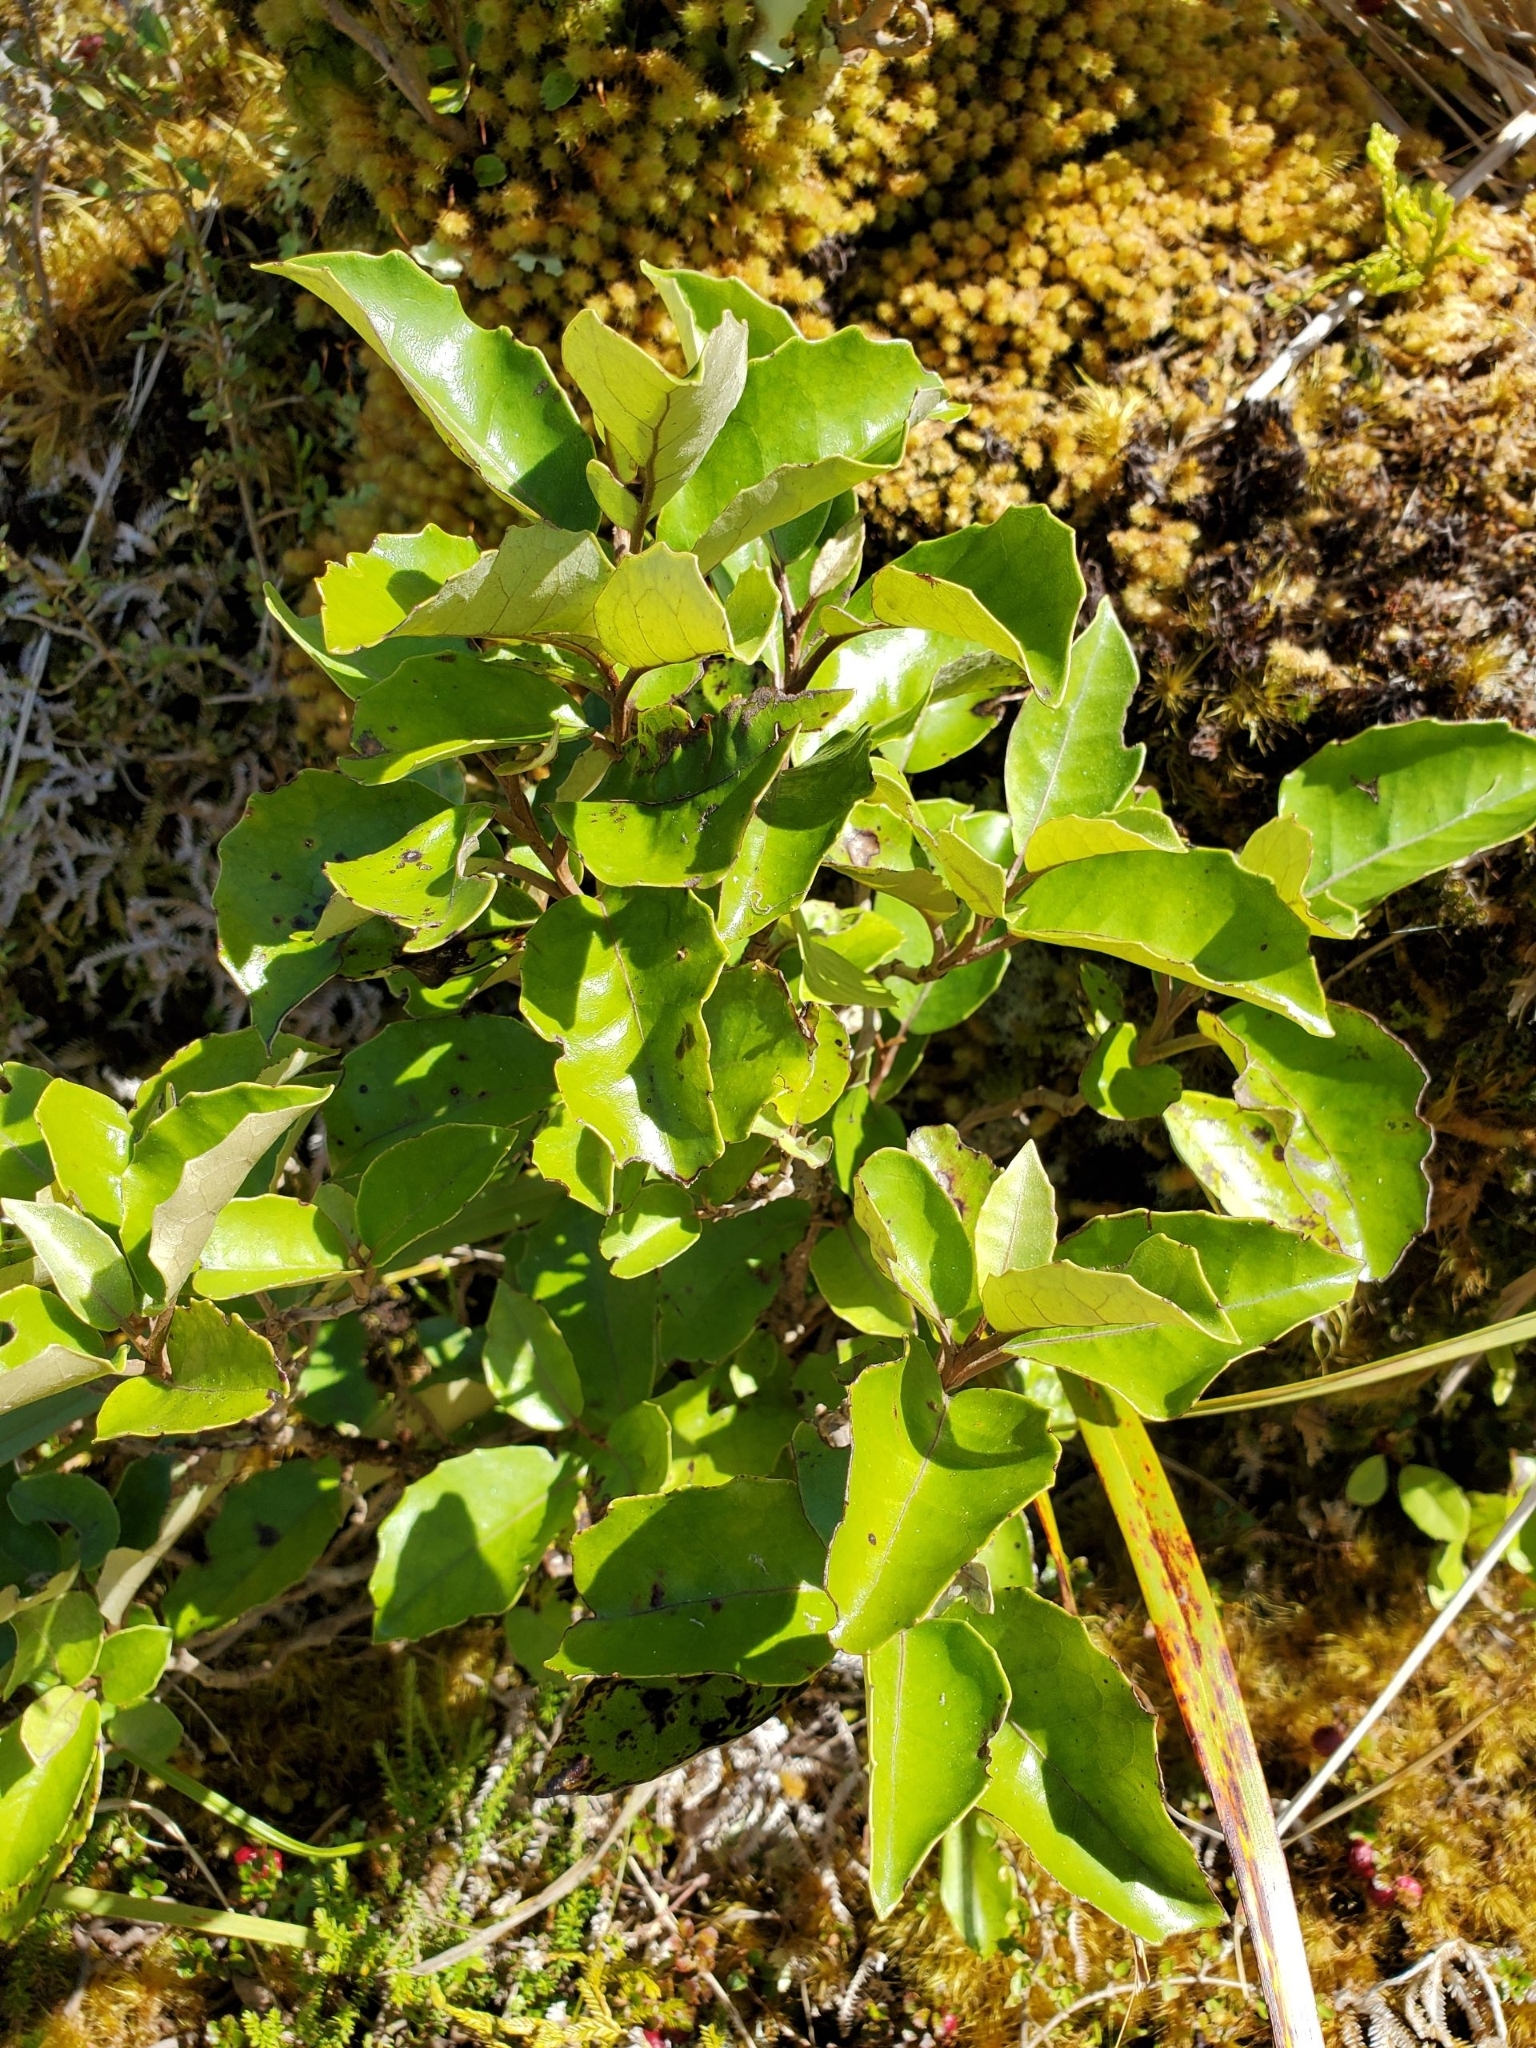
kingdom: Plantae
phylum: Tracheophyta
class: Magnoliopsida
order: Asterales
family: Asteraceae
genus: Olearia
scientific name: Olearia arborescens
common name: Glossy tree daisy
